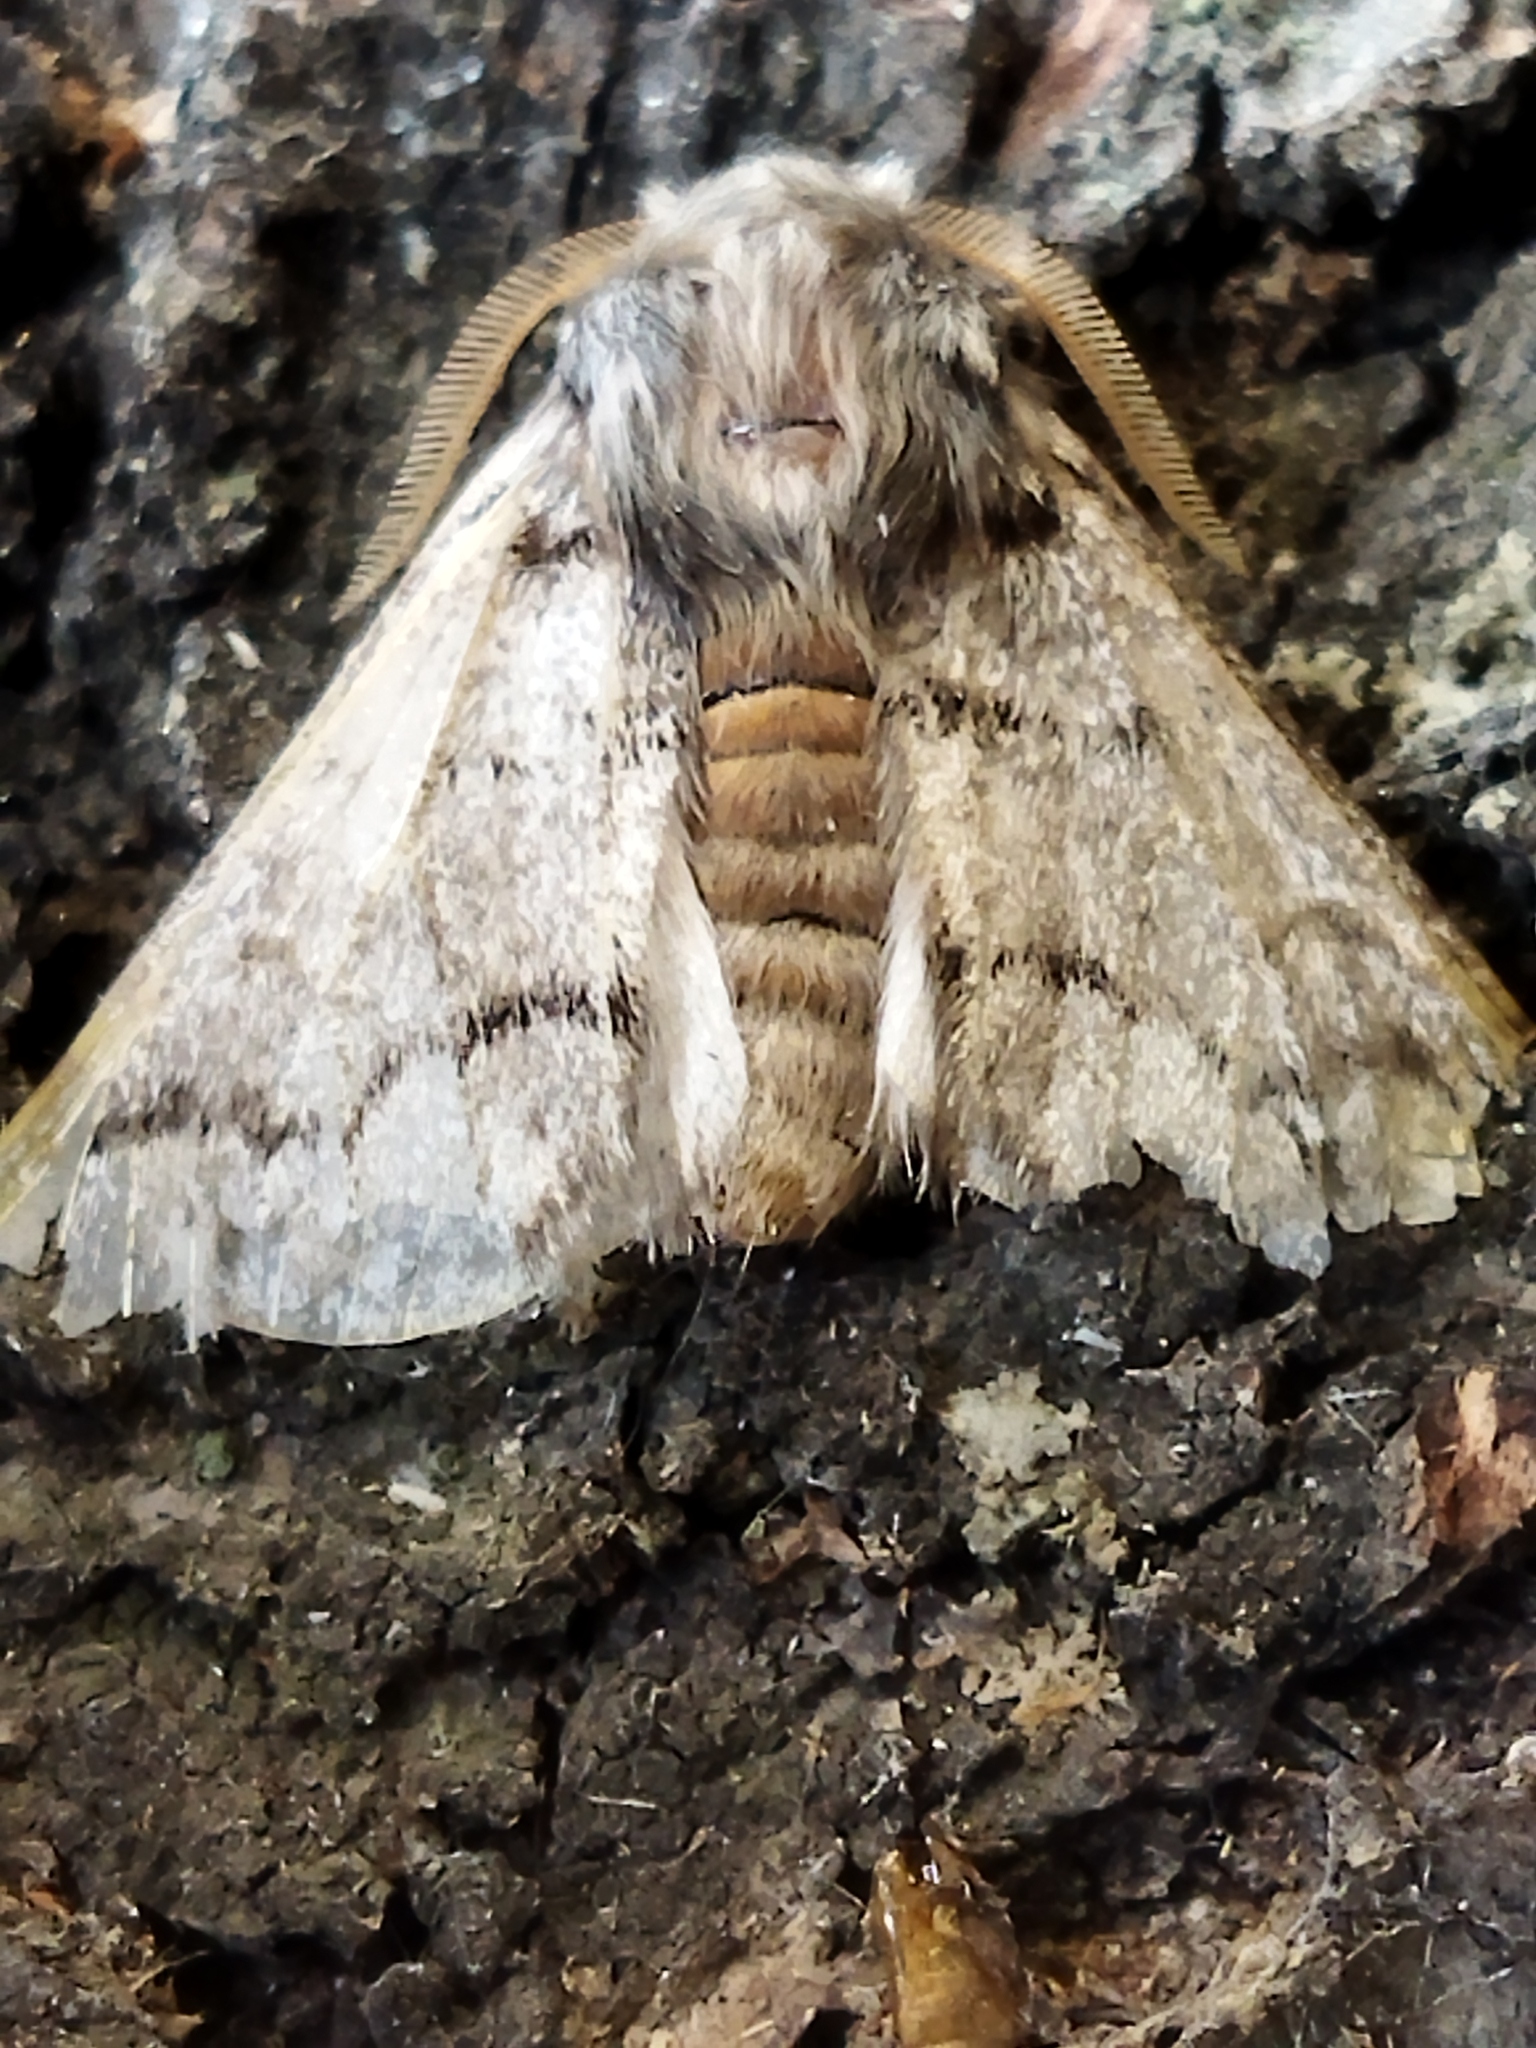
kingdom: Animalia
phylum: Arthropoda
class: Insecta
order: Lepidoptera
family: Notodontidae
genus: Thaumetopoea
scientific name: Thaumetopoea pityocampa
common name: Pine processionary
